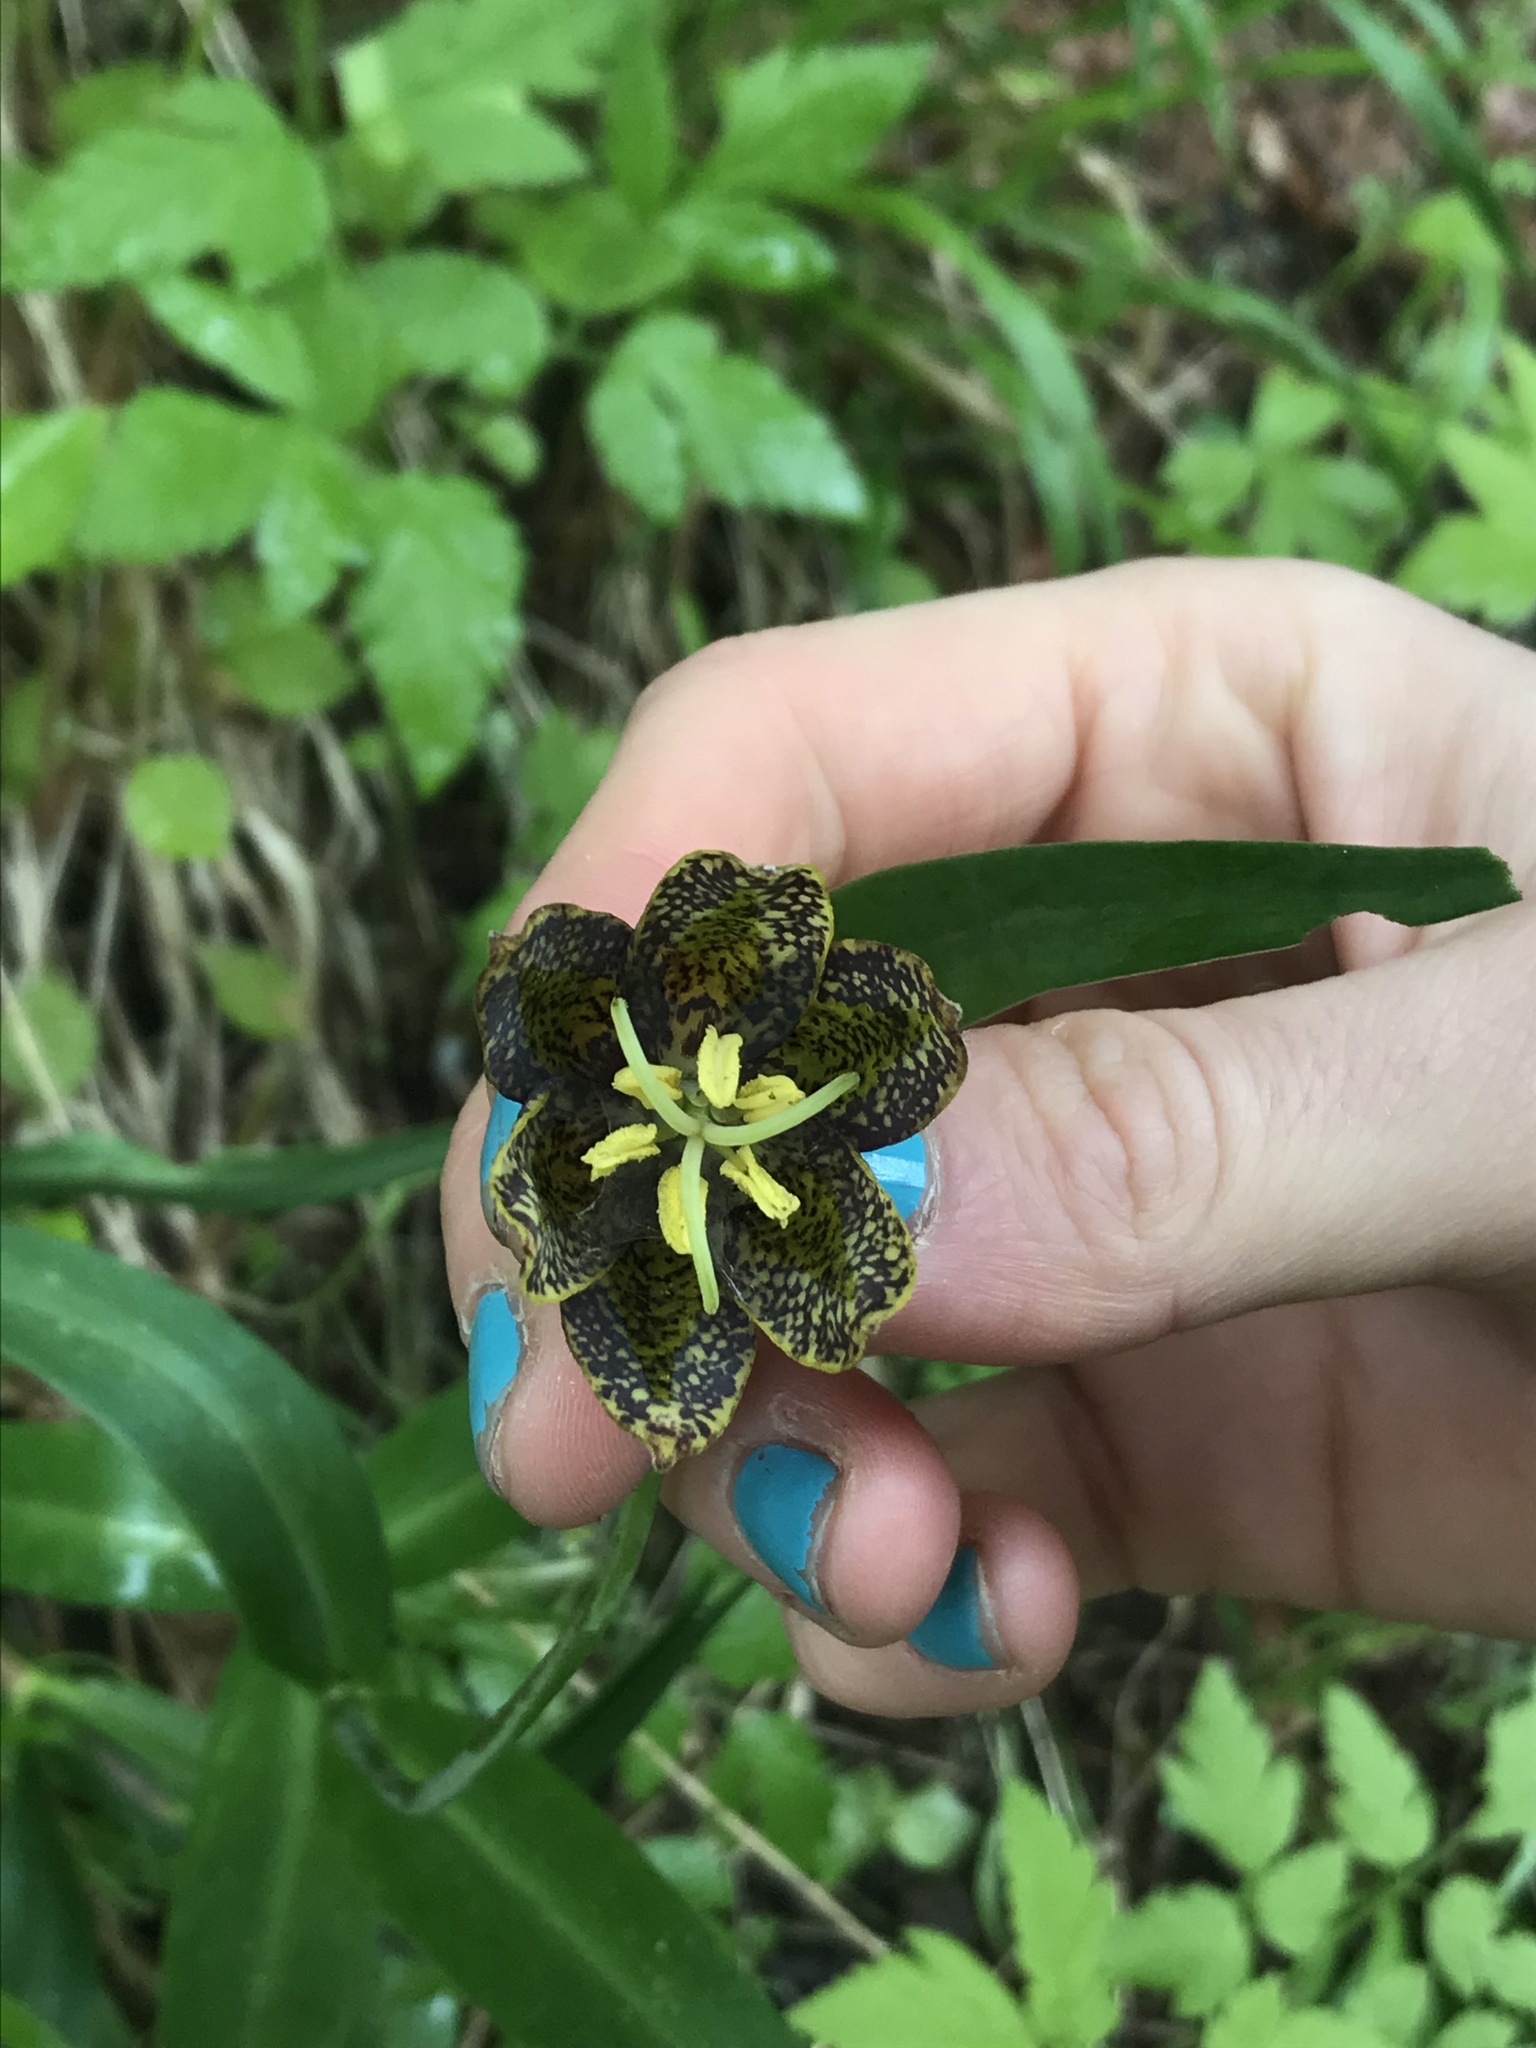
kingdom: Plantae
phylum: Tracheophyta
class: Liliopsida
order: Liliales
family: Liliaceae
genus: Fritillaria
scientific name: Fritillaria affinis
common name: Ojai fritillary
